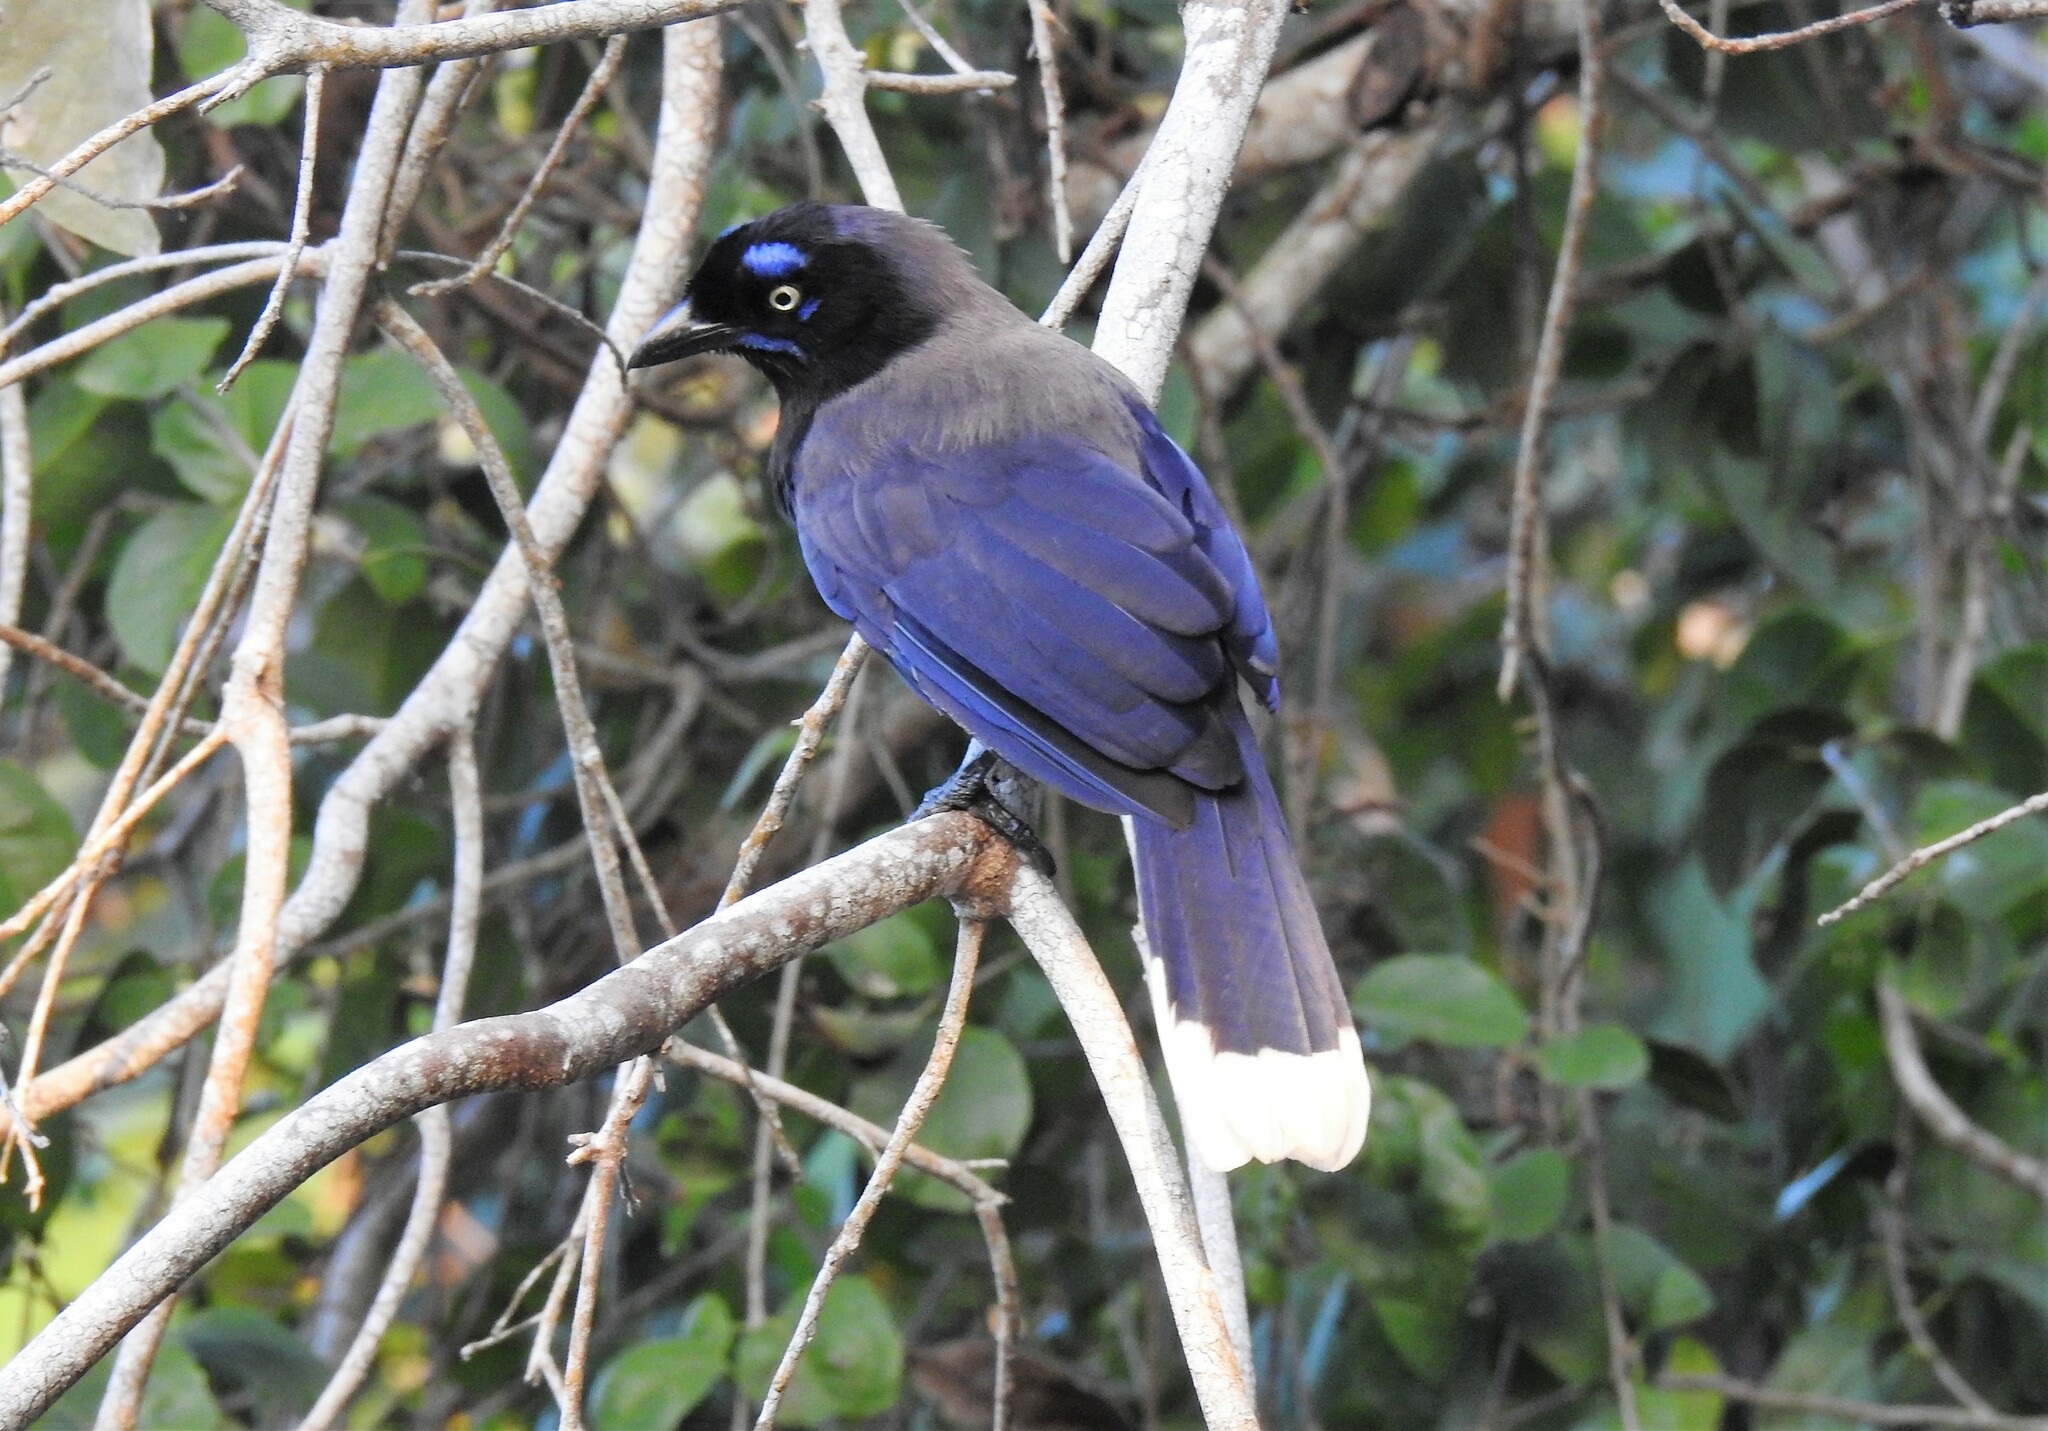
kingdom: Animalia
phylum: Chordata
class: Aves
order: Passeriformes
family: Corvidae
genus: Cyanocorax
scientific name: Cyanocorax affinis
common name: Black-chested jay
